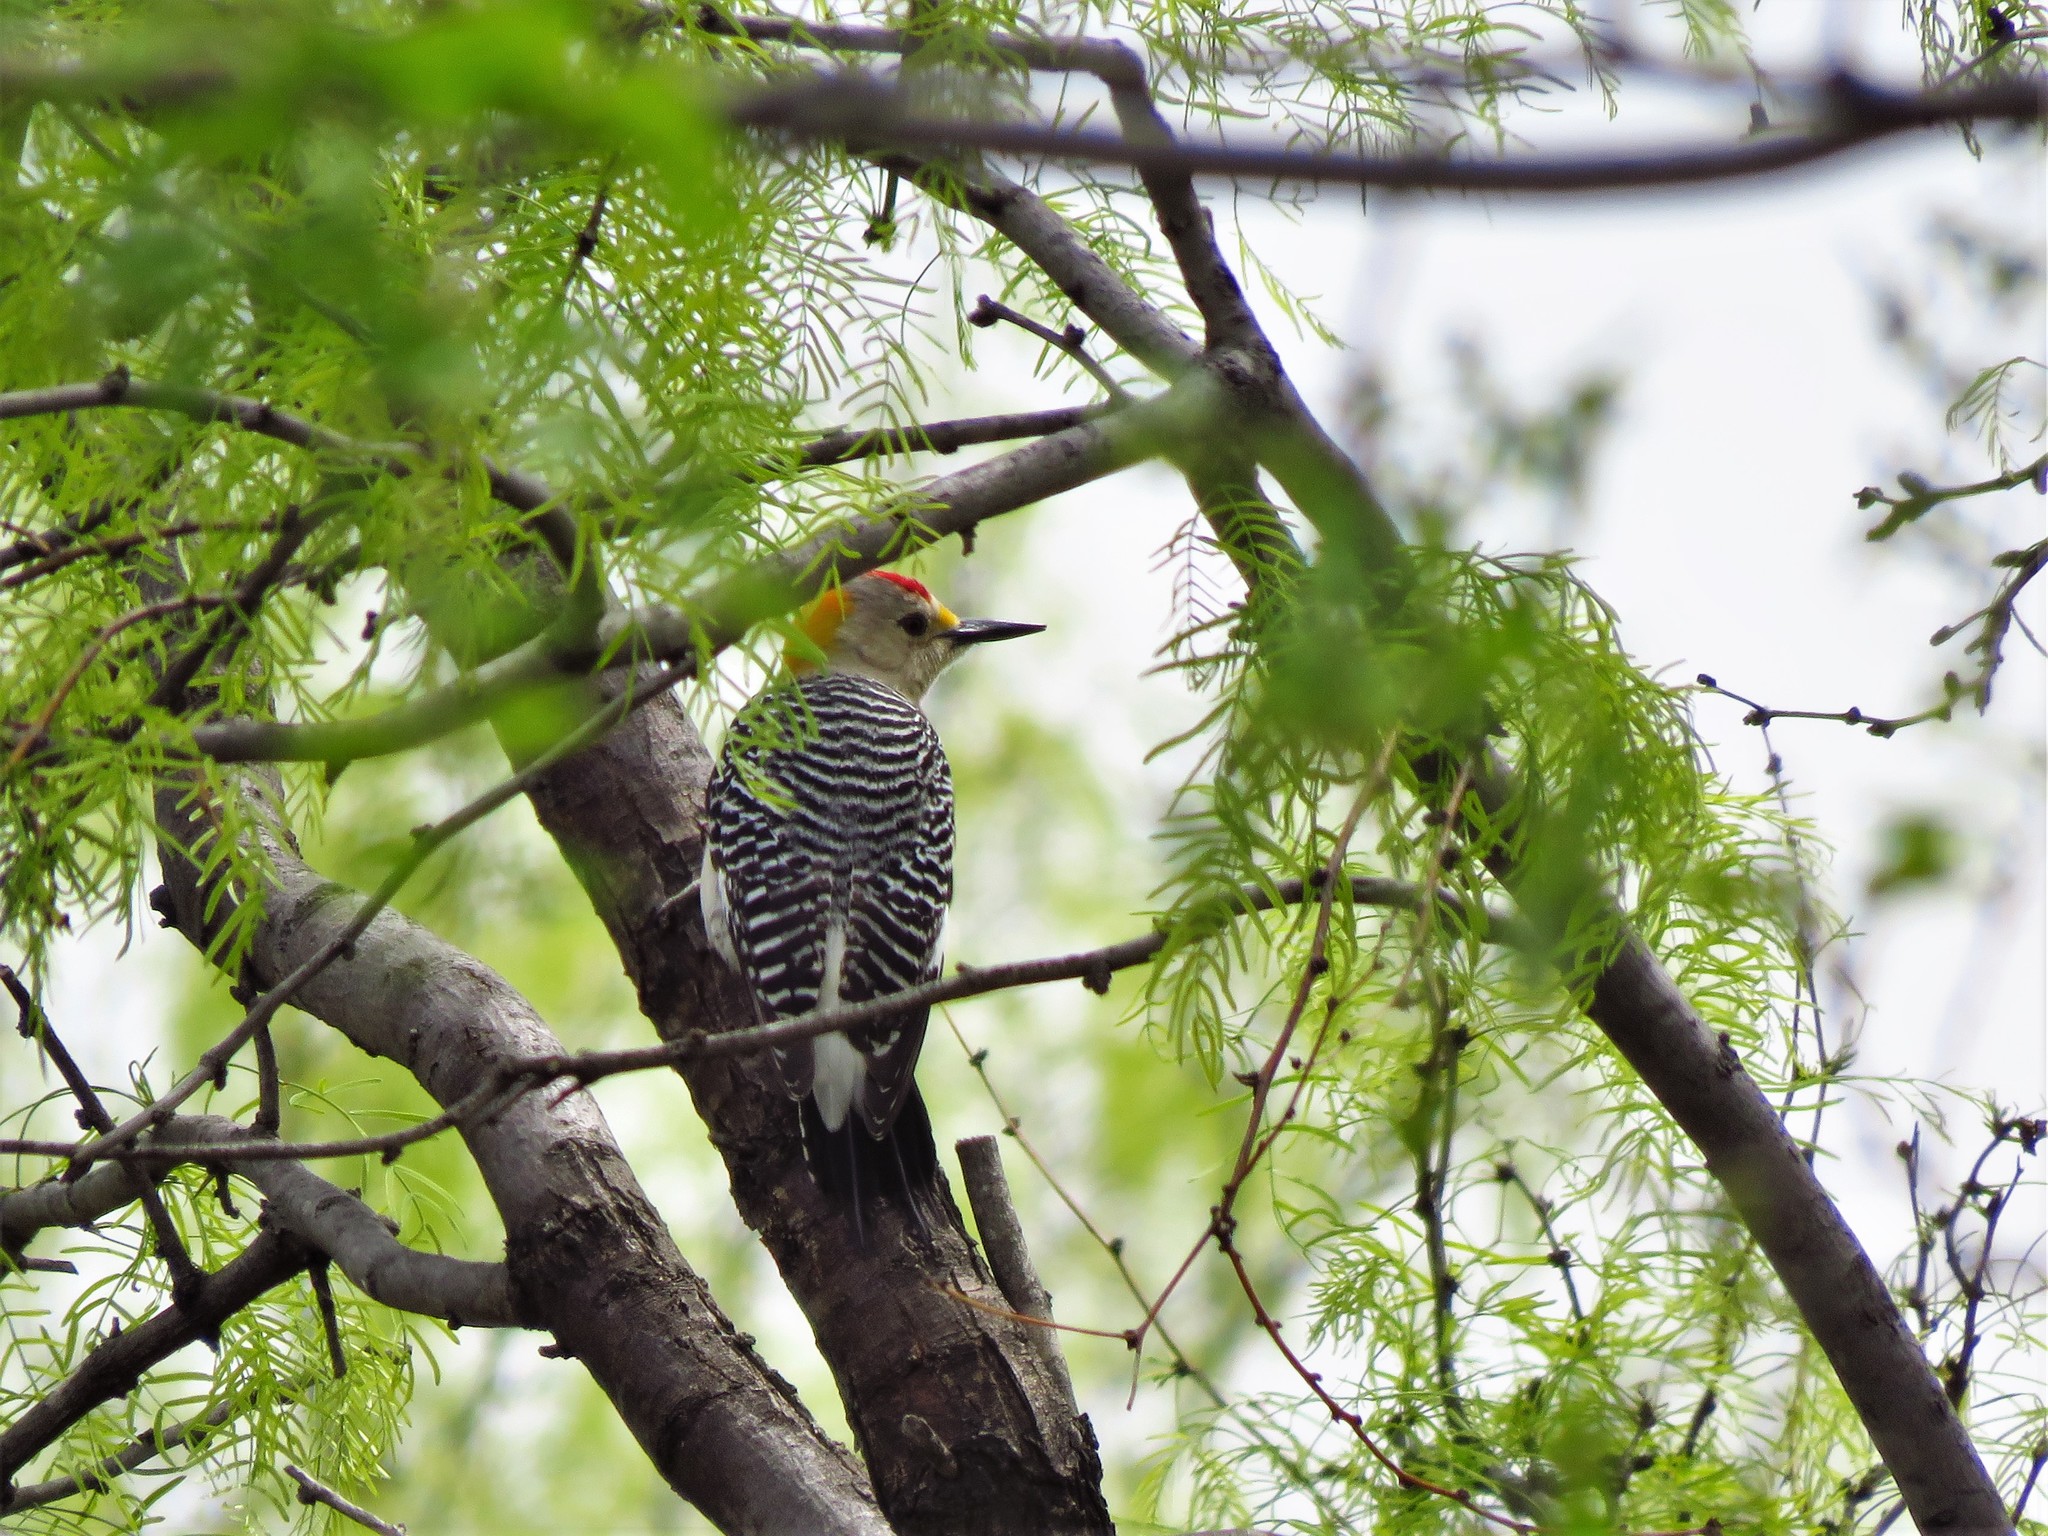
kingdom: Animalia
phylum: Chordata
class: Aves
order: Piciformes
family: Picidae
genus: Melanerpes
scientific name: Melanerpes aurifrons
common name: Golden-fronted woodpecker
